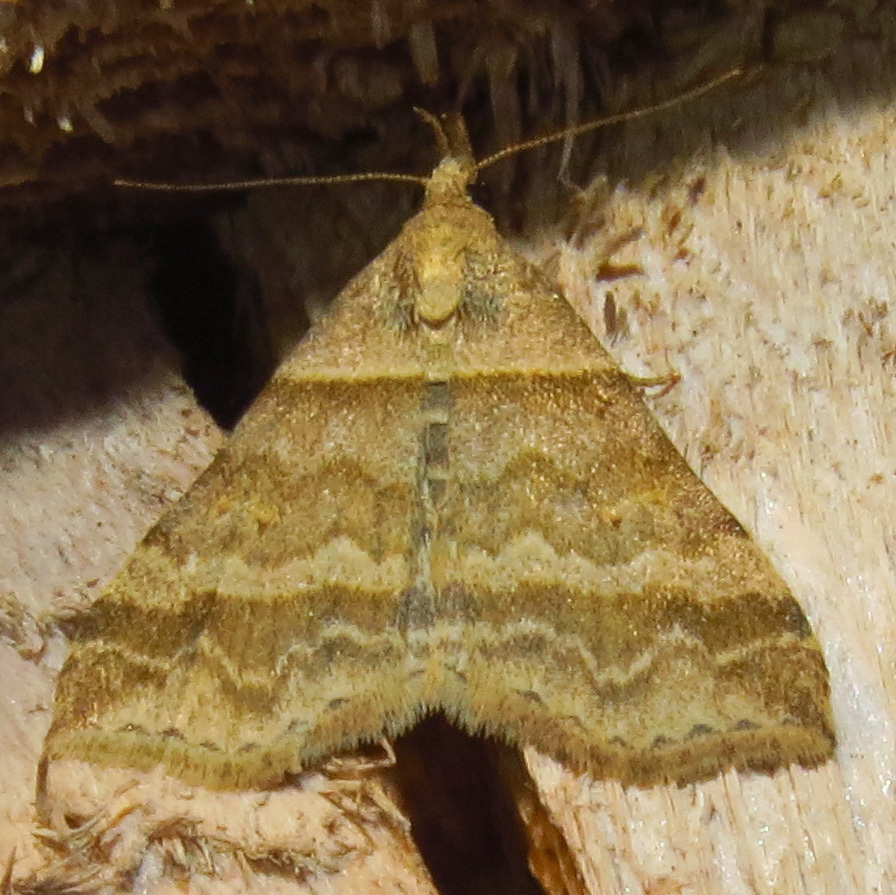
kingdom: Animalia
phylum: Arthropoda
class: Insecta
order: Lepidoptera
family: Erebidae
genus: Phaeolita
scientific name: Phaeolita pyramusalis
